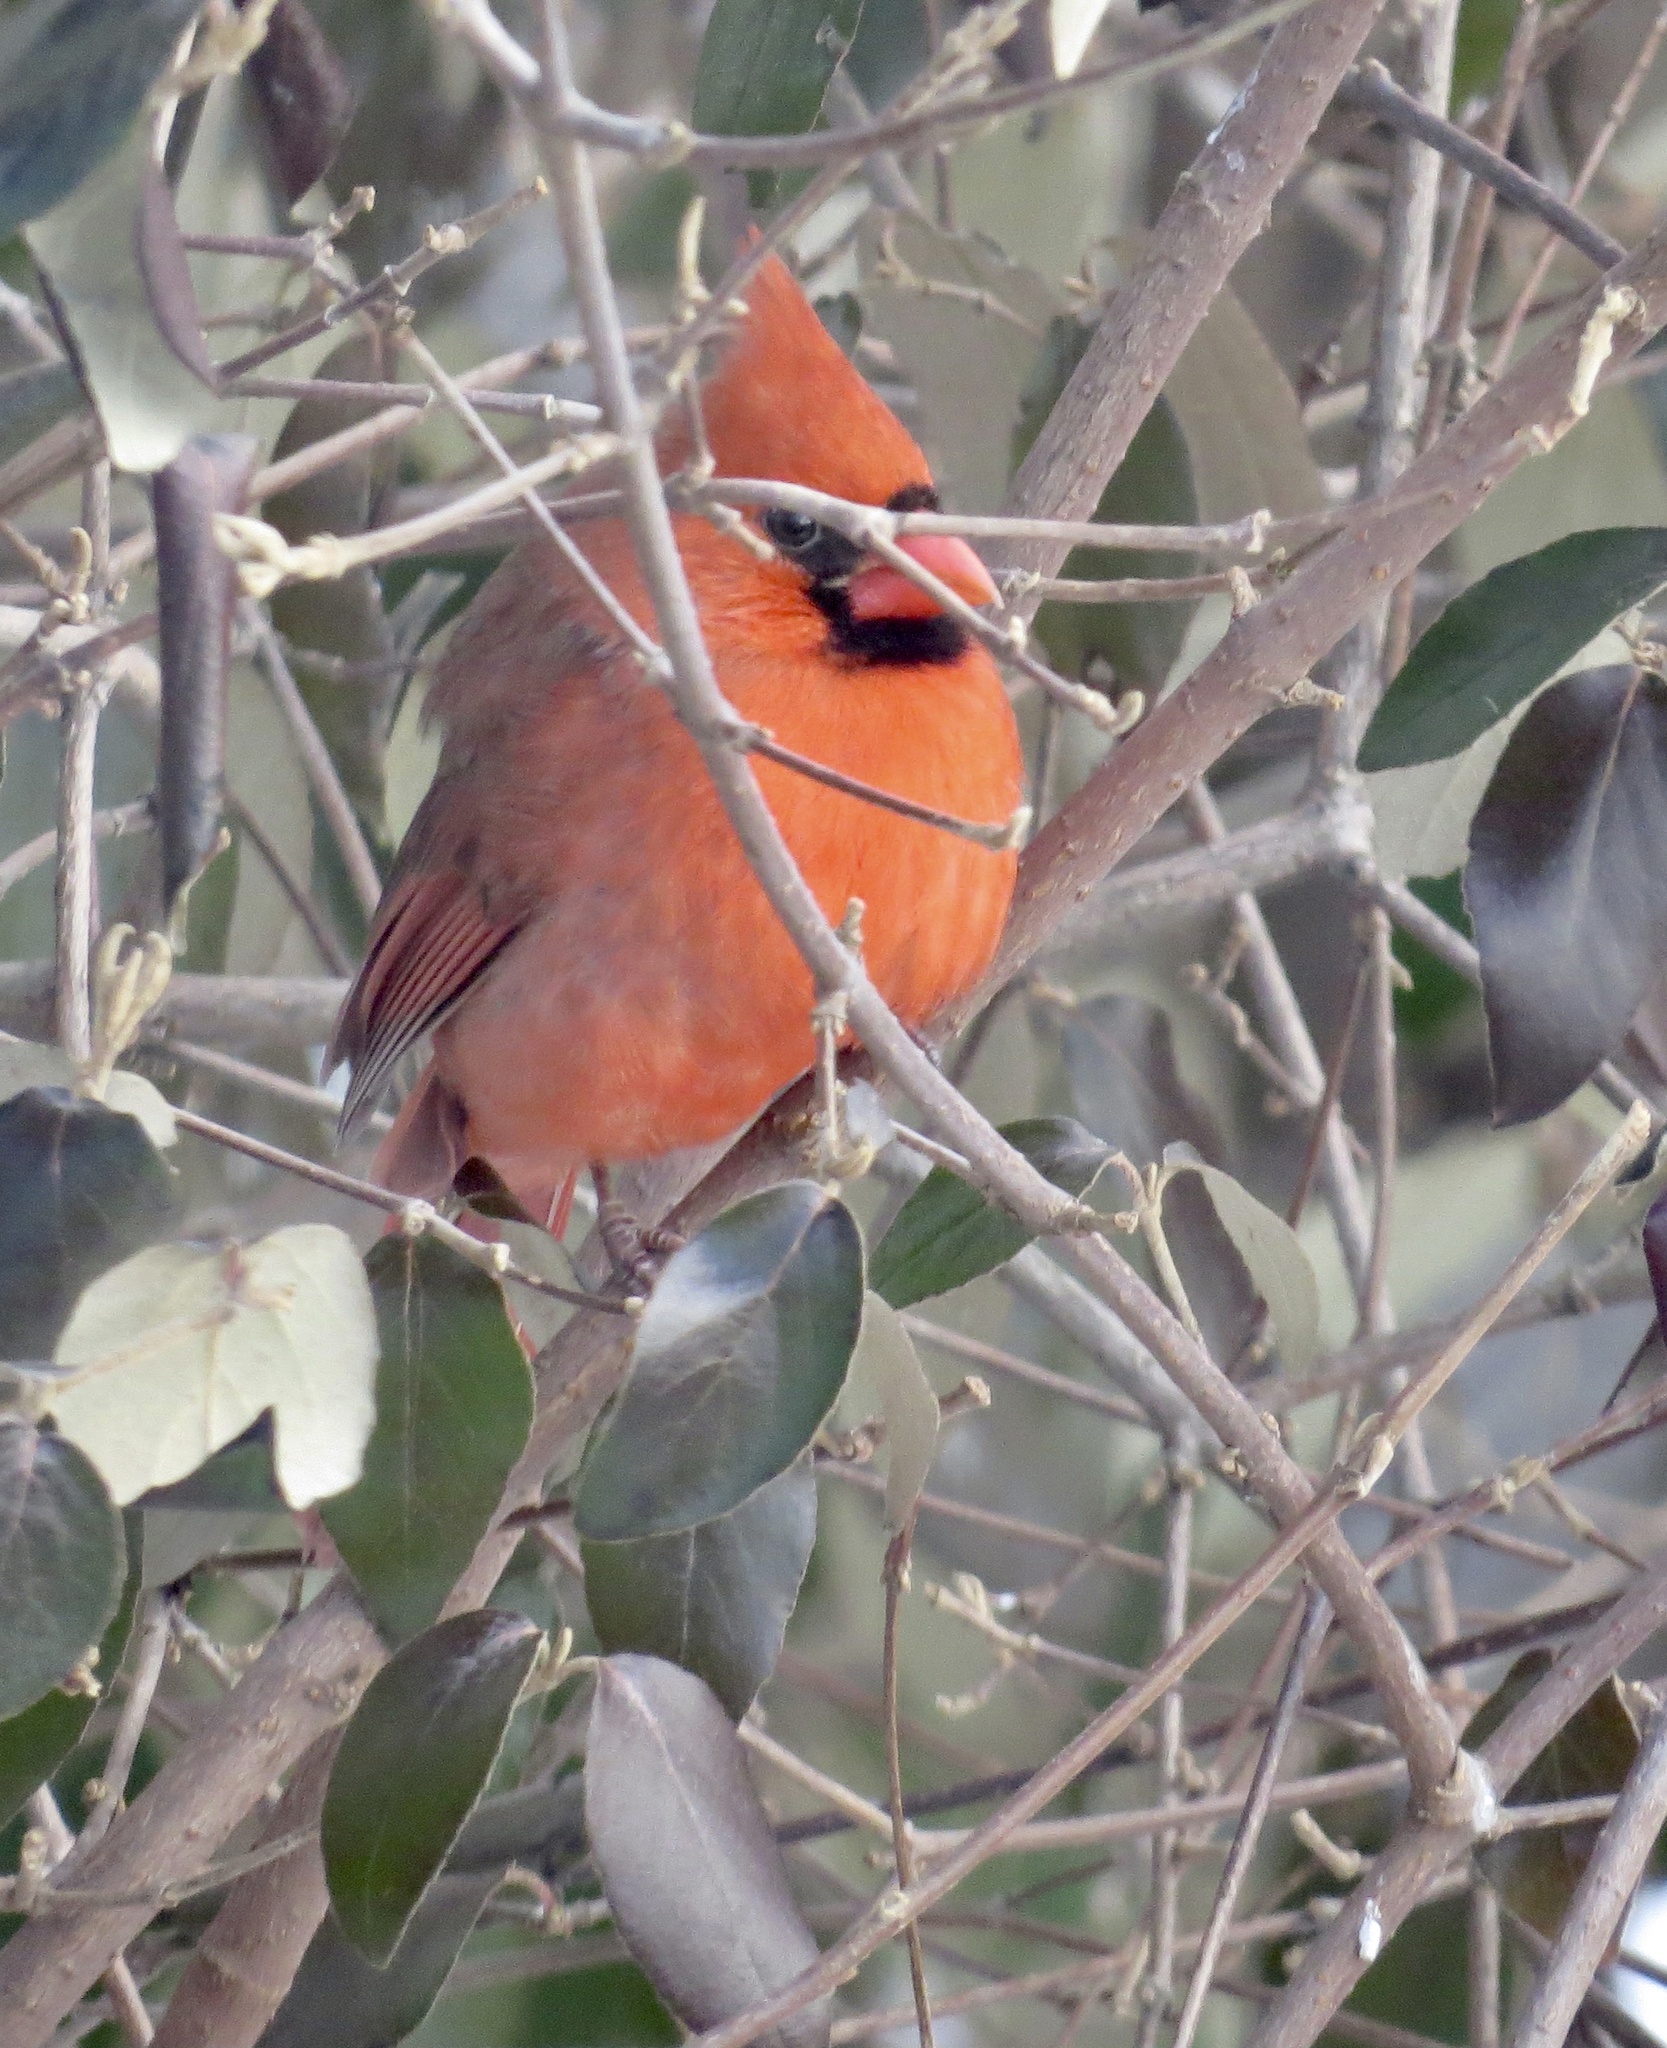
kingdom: Animalia
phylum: Chordata
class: Aves
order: Passeriformes
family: Cardinalidae
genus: Cardinalis
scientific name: Cardinalis cardinalis
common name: Northern cardinal
